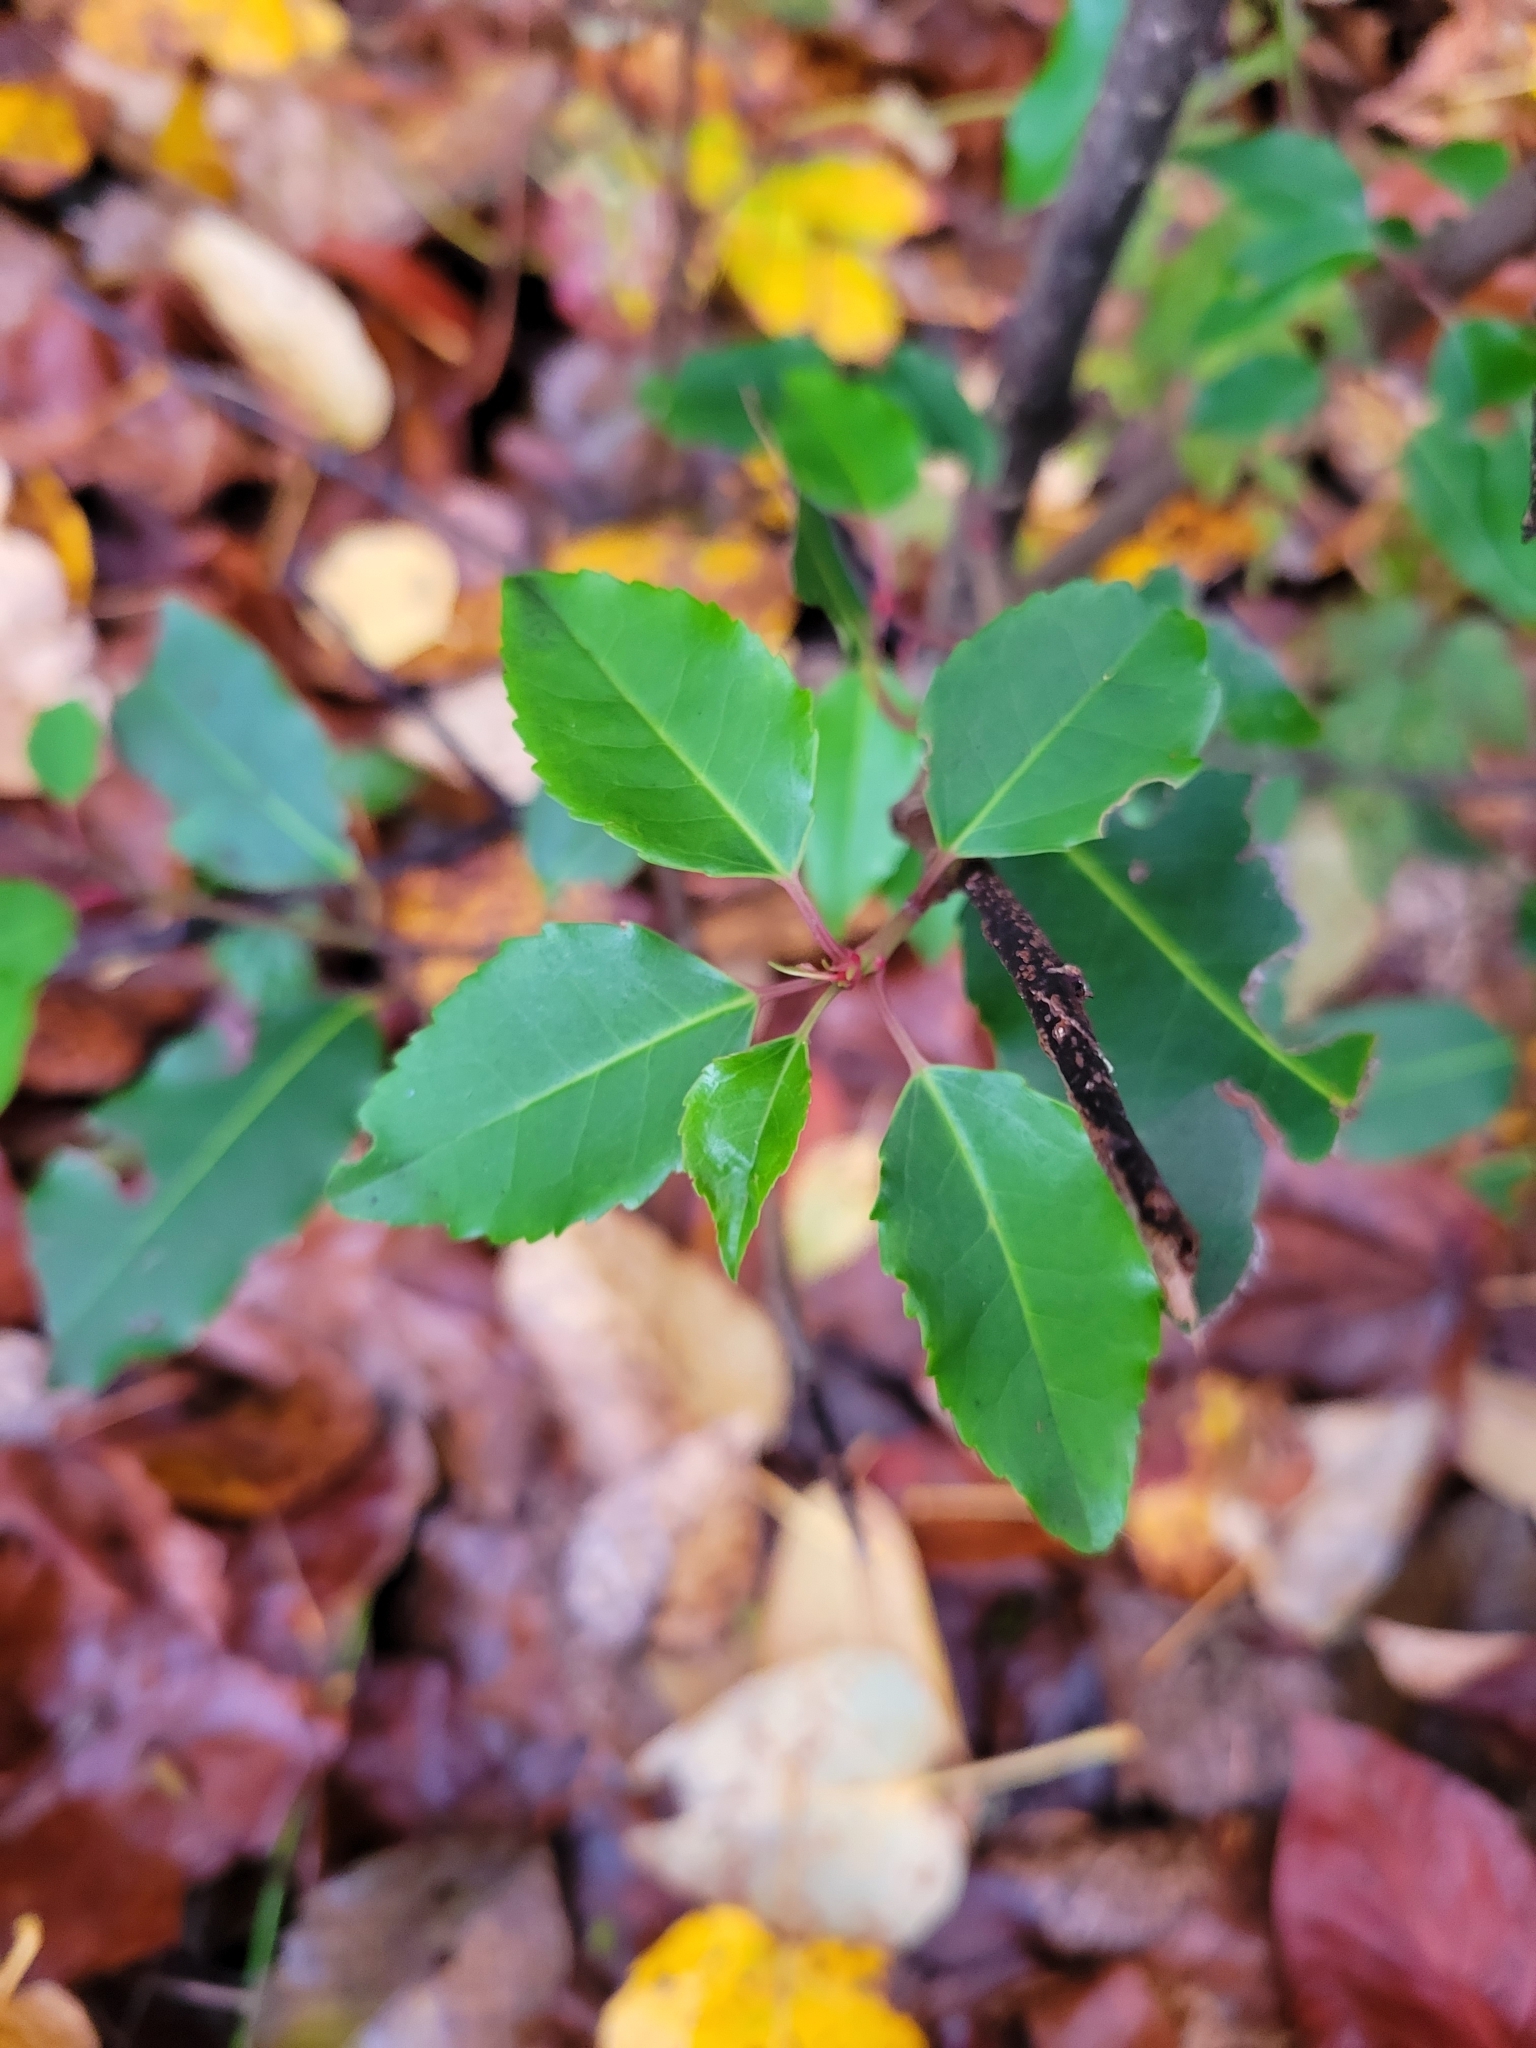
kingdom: Plantae
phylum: Tracheophyta
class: Magnoliopsida
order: Rosales
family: Rosaceae
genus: Prunus
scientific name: Prunus lusitanica
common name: Portugal laurel
